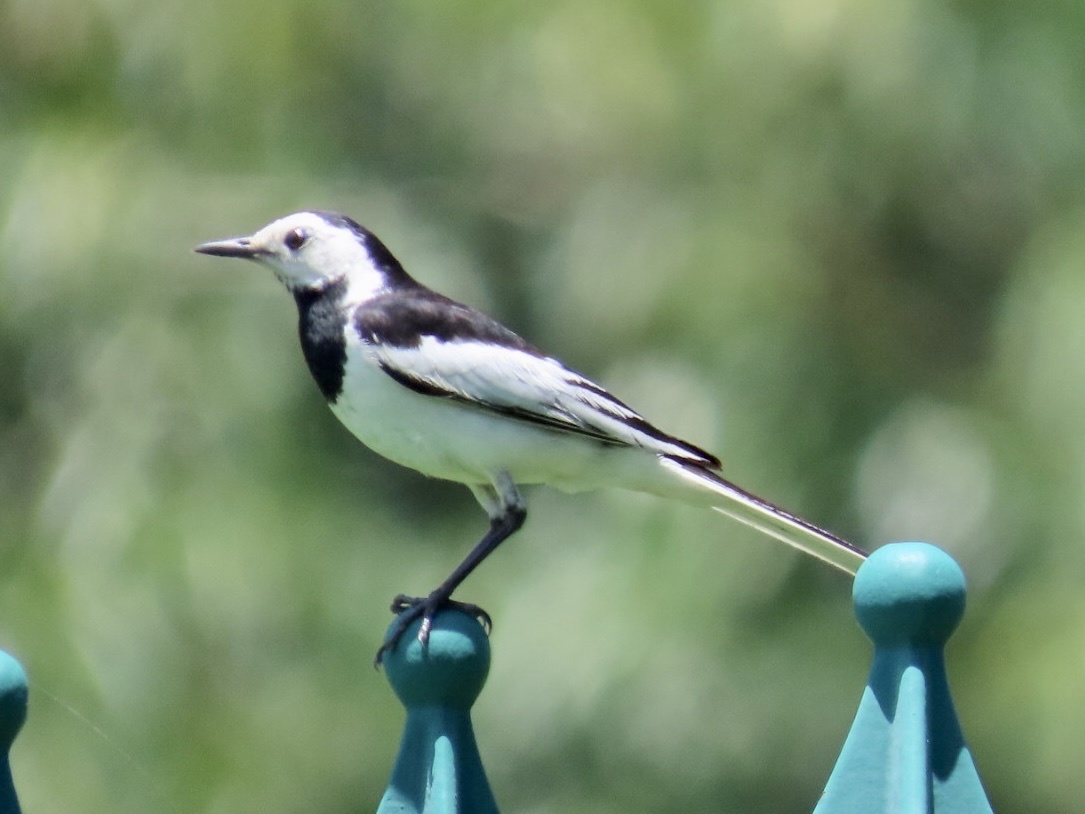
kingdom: Animalia
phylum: Chordata
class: Aves
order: Passeriformes
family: Motacillidae
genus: Motacilla
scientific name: Motacilla alba
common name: White wagtail
